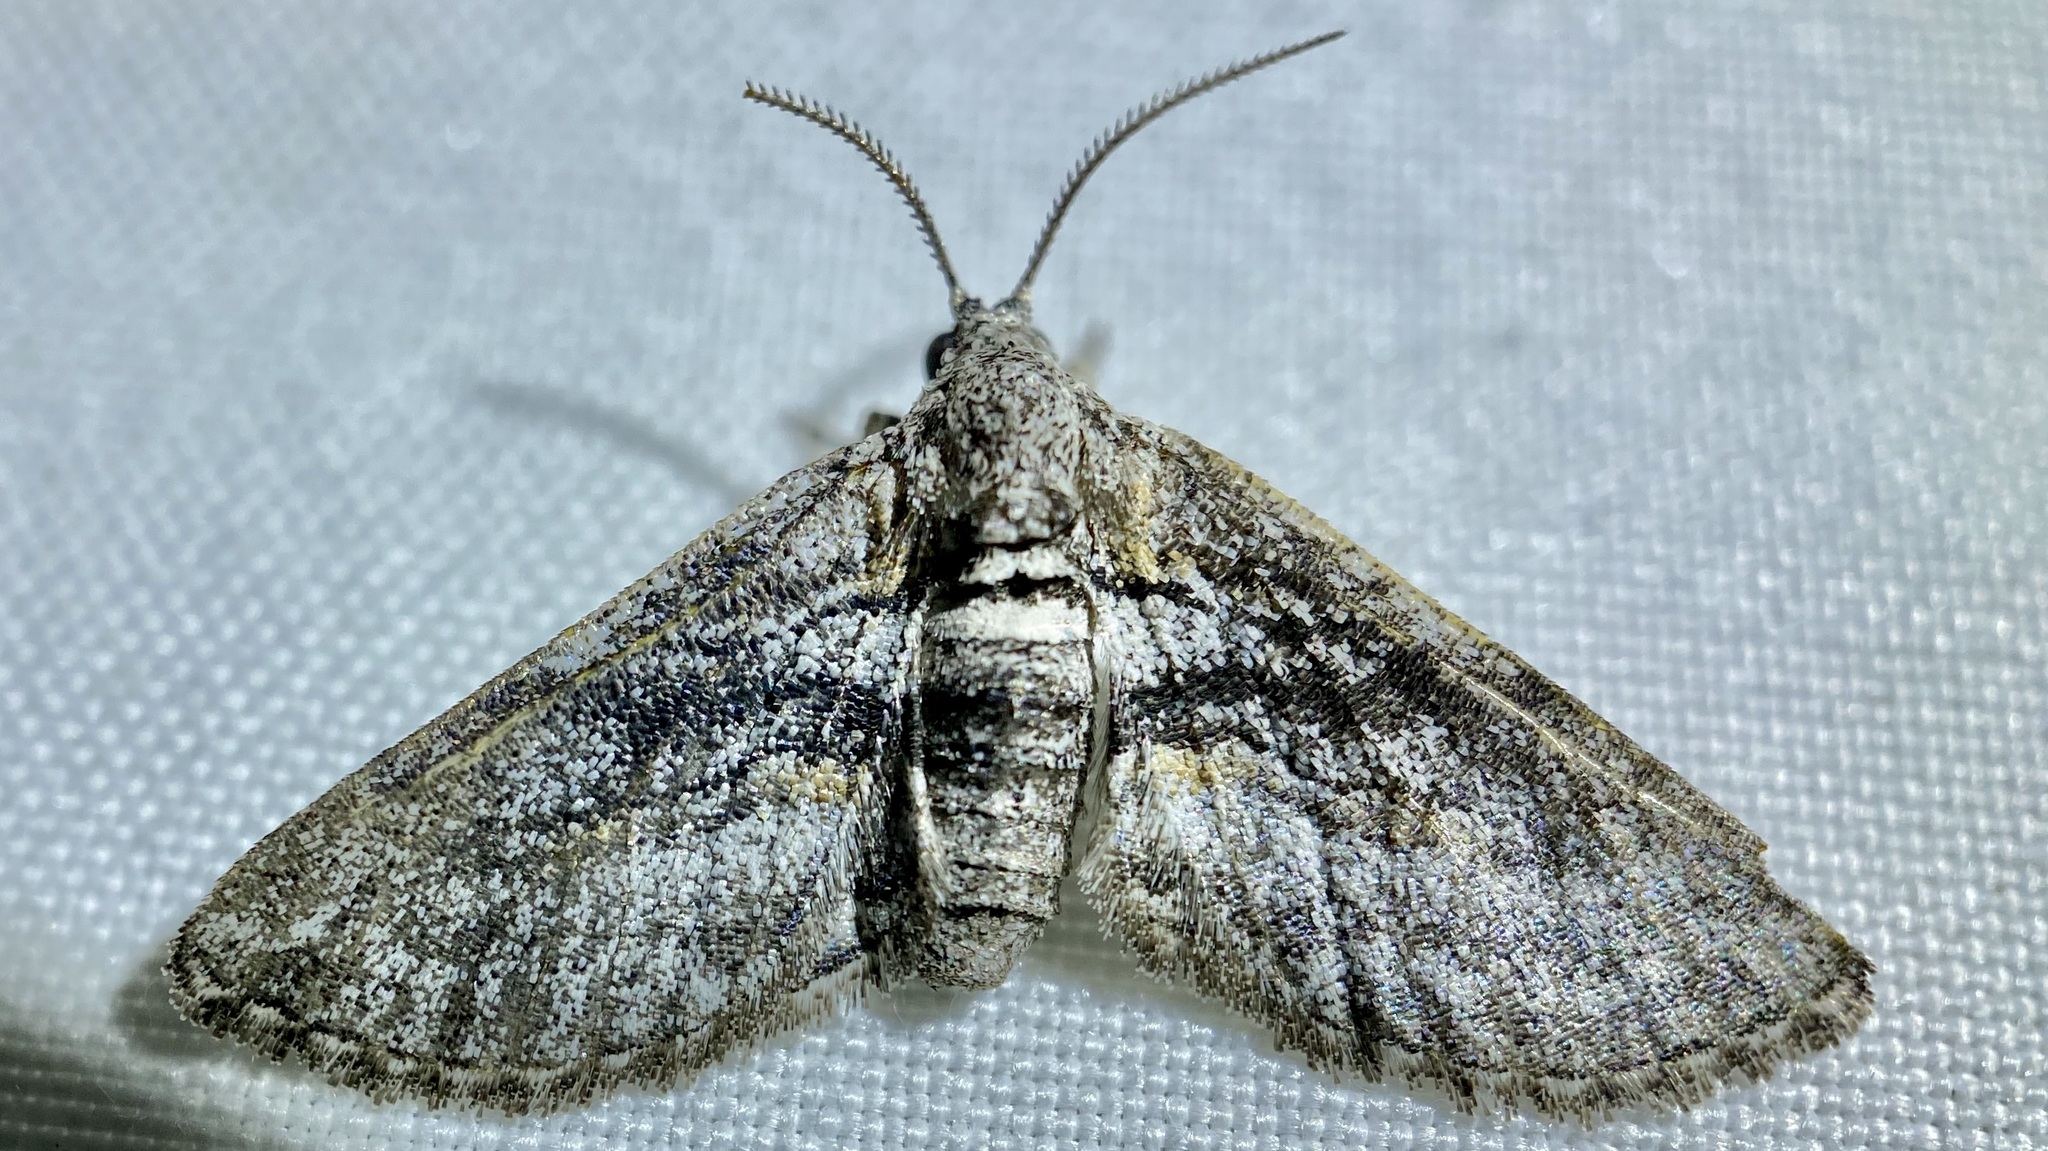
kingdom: Animalia
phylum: Arthropoda
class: Insecta
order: Lepidoptera
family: Geometridae
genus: Eubarnesia
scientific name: Eubarnesia ritaria
